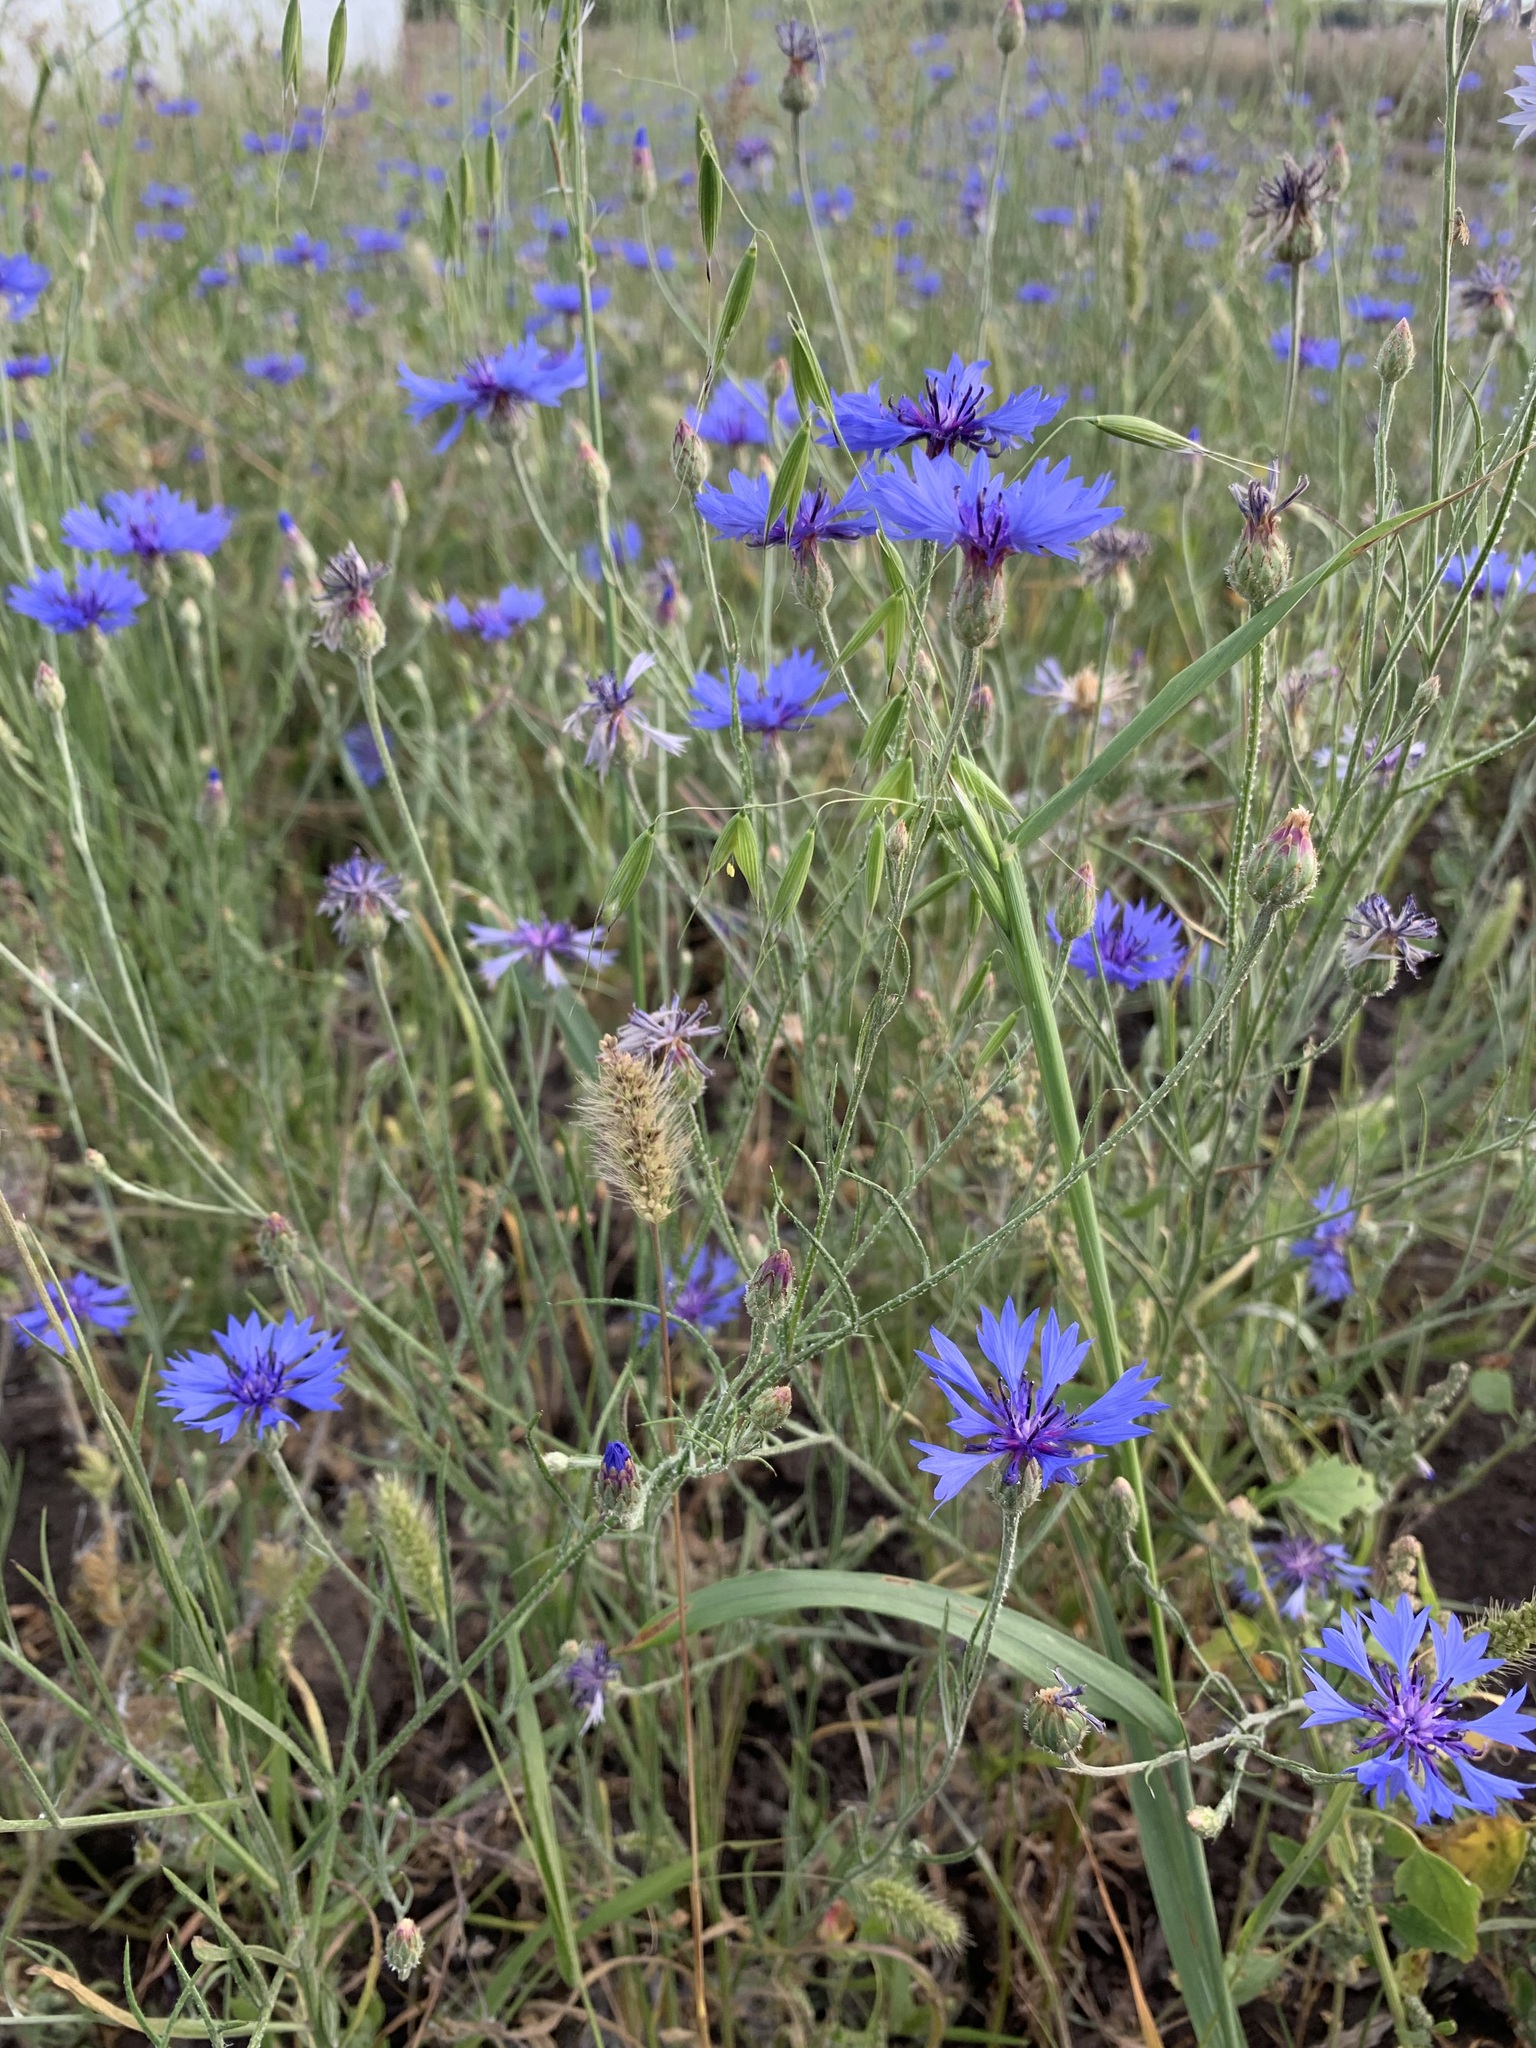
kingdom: Plantae
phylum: Tracheophyta
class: Magnoliopsida
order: Asterales
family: Asteraceae
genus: Centaurea
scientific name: Centaurea cyanus
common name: Cornflower
